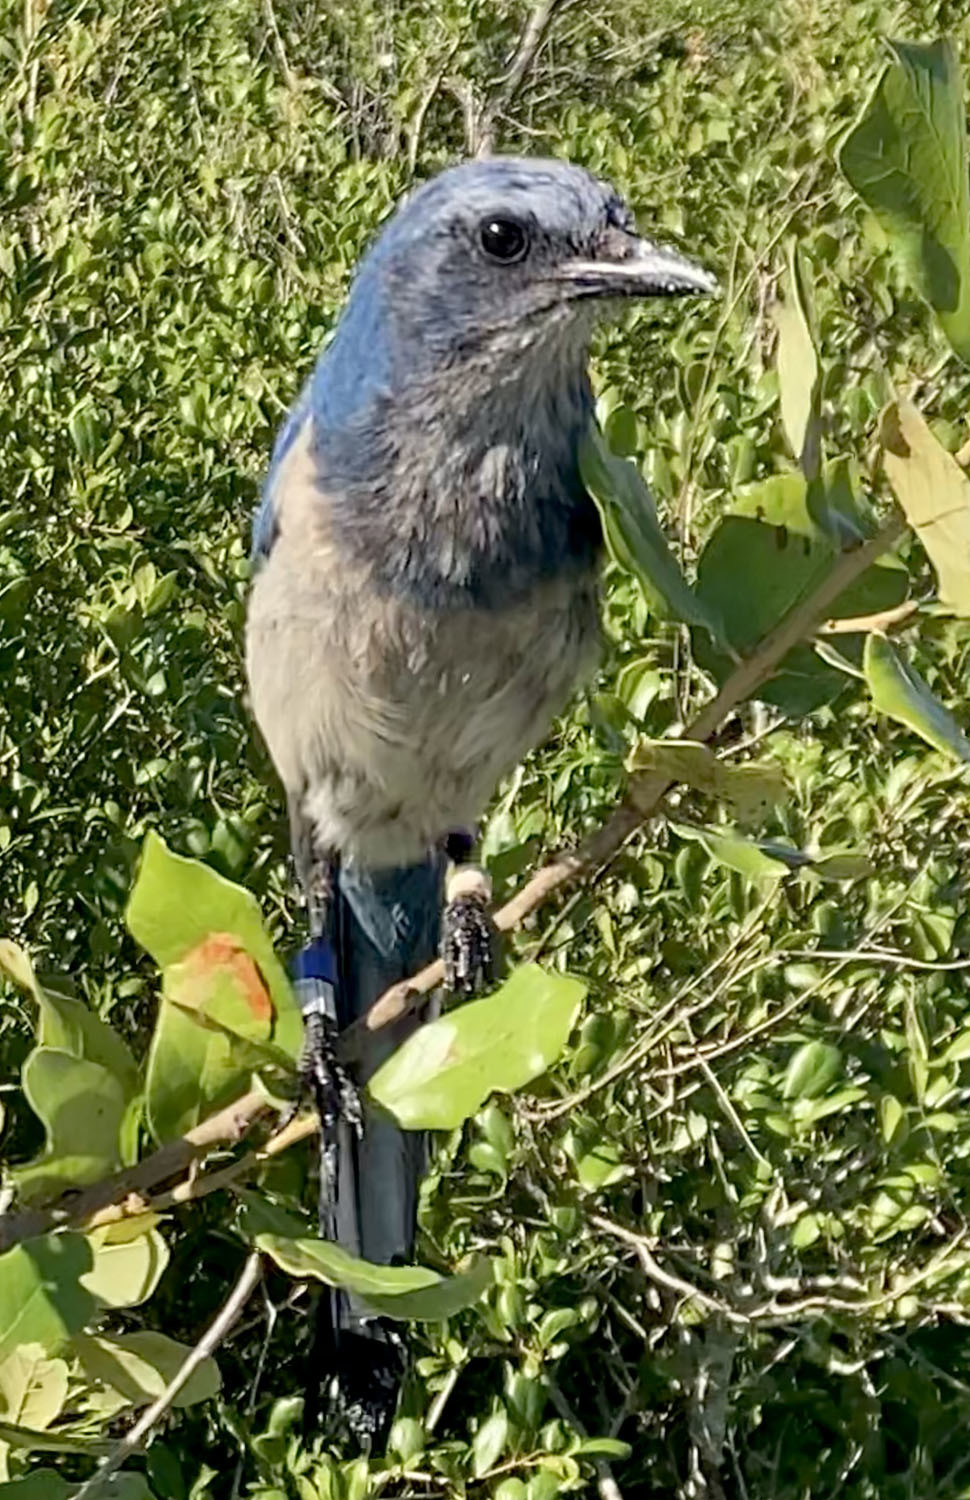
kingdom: Animalia
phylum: Chordata
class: Aves
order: Passeriformes
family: Corvidae
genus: Aphelocoma
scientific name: Aphelocoma coerulescens
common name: Florida scrub jay
